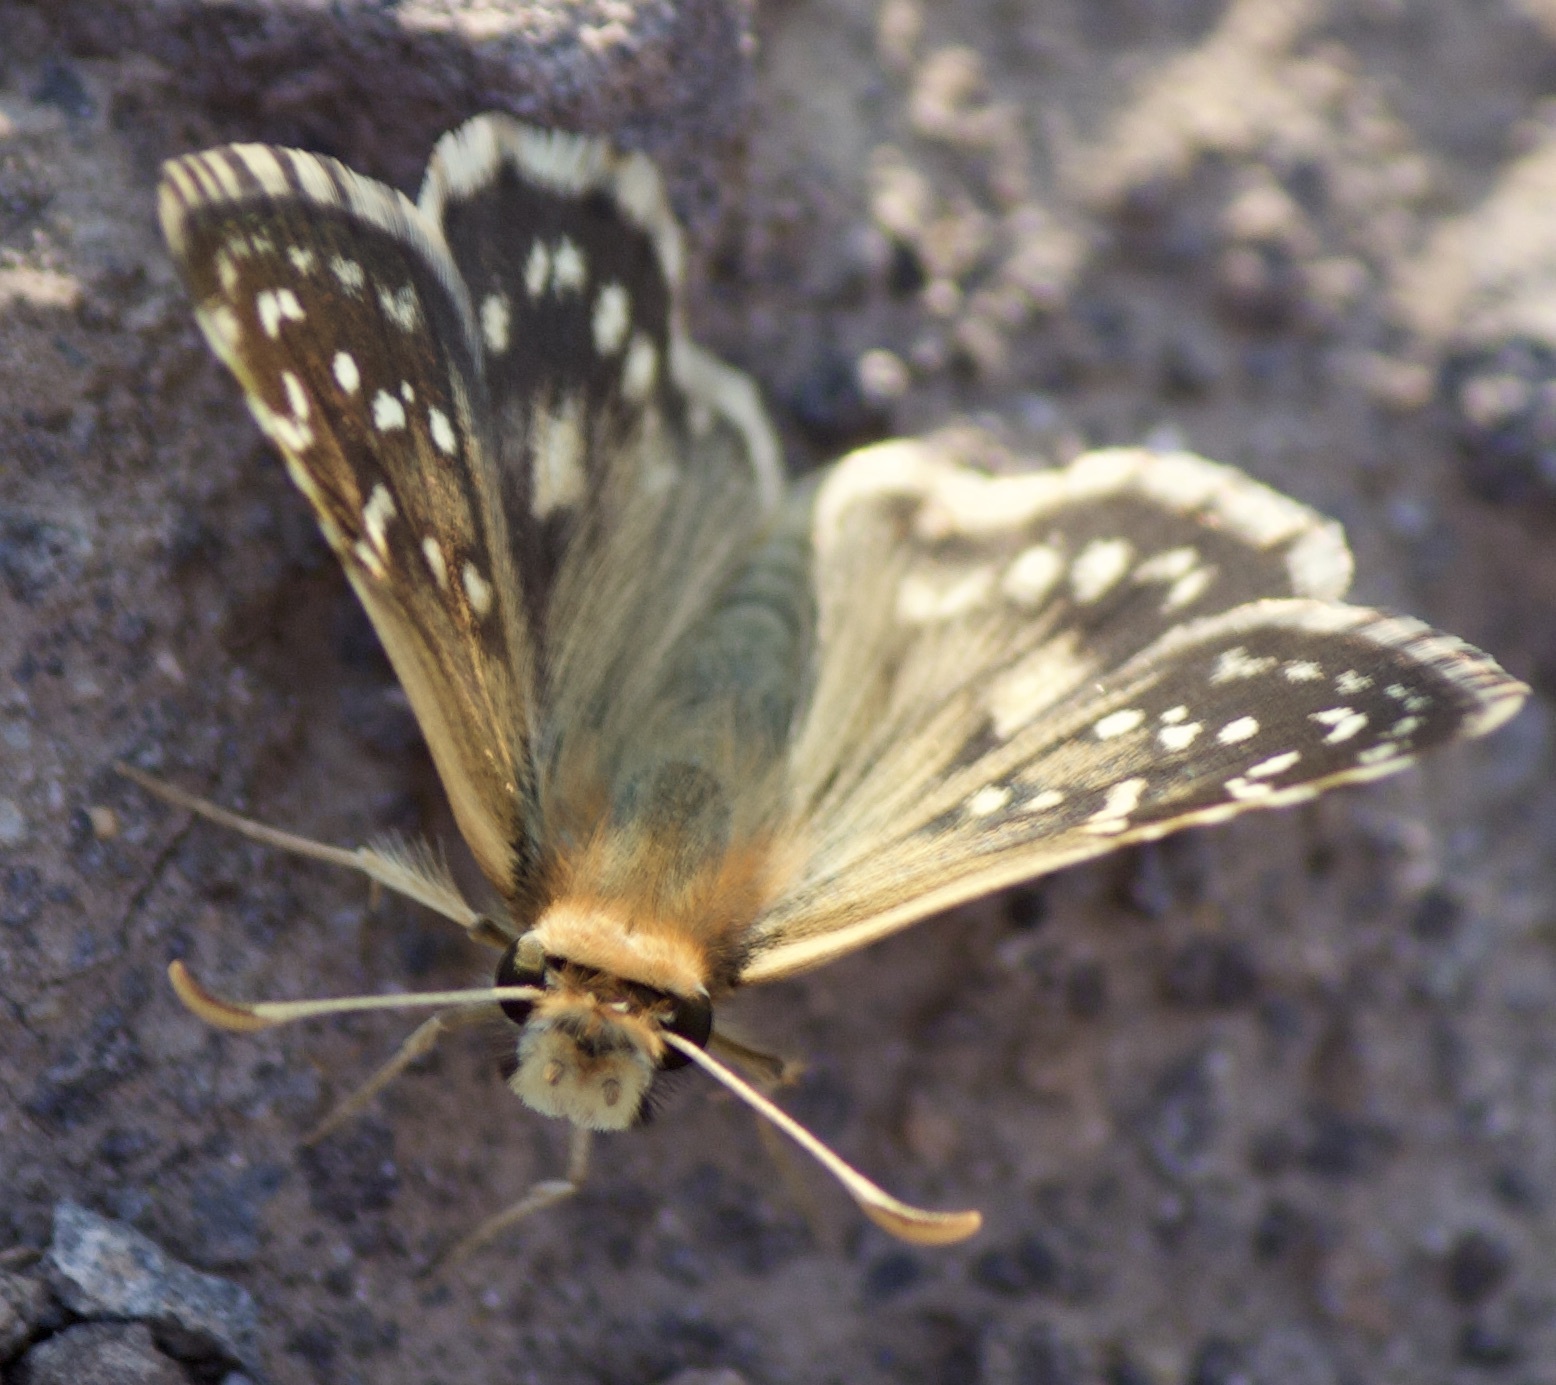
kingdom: Animalia
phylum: Arthropoda
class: Insecta
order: Lepidoptera
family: Hesperiidae
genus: Chirgus
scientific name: Chirgus fides
